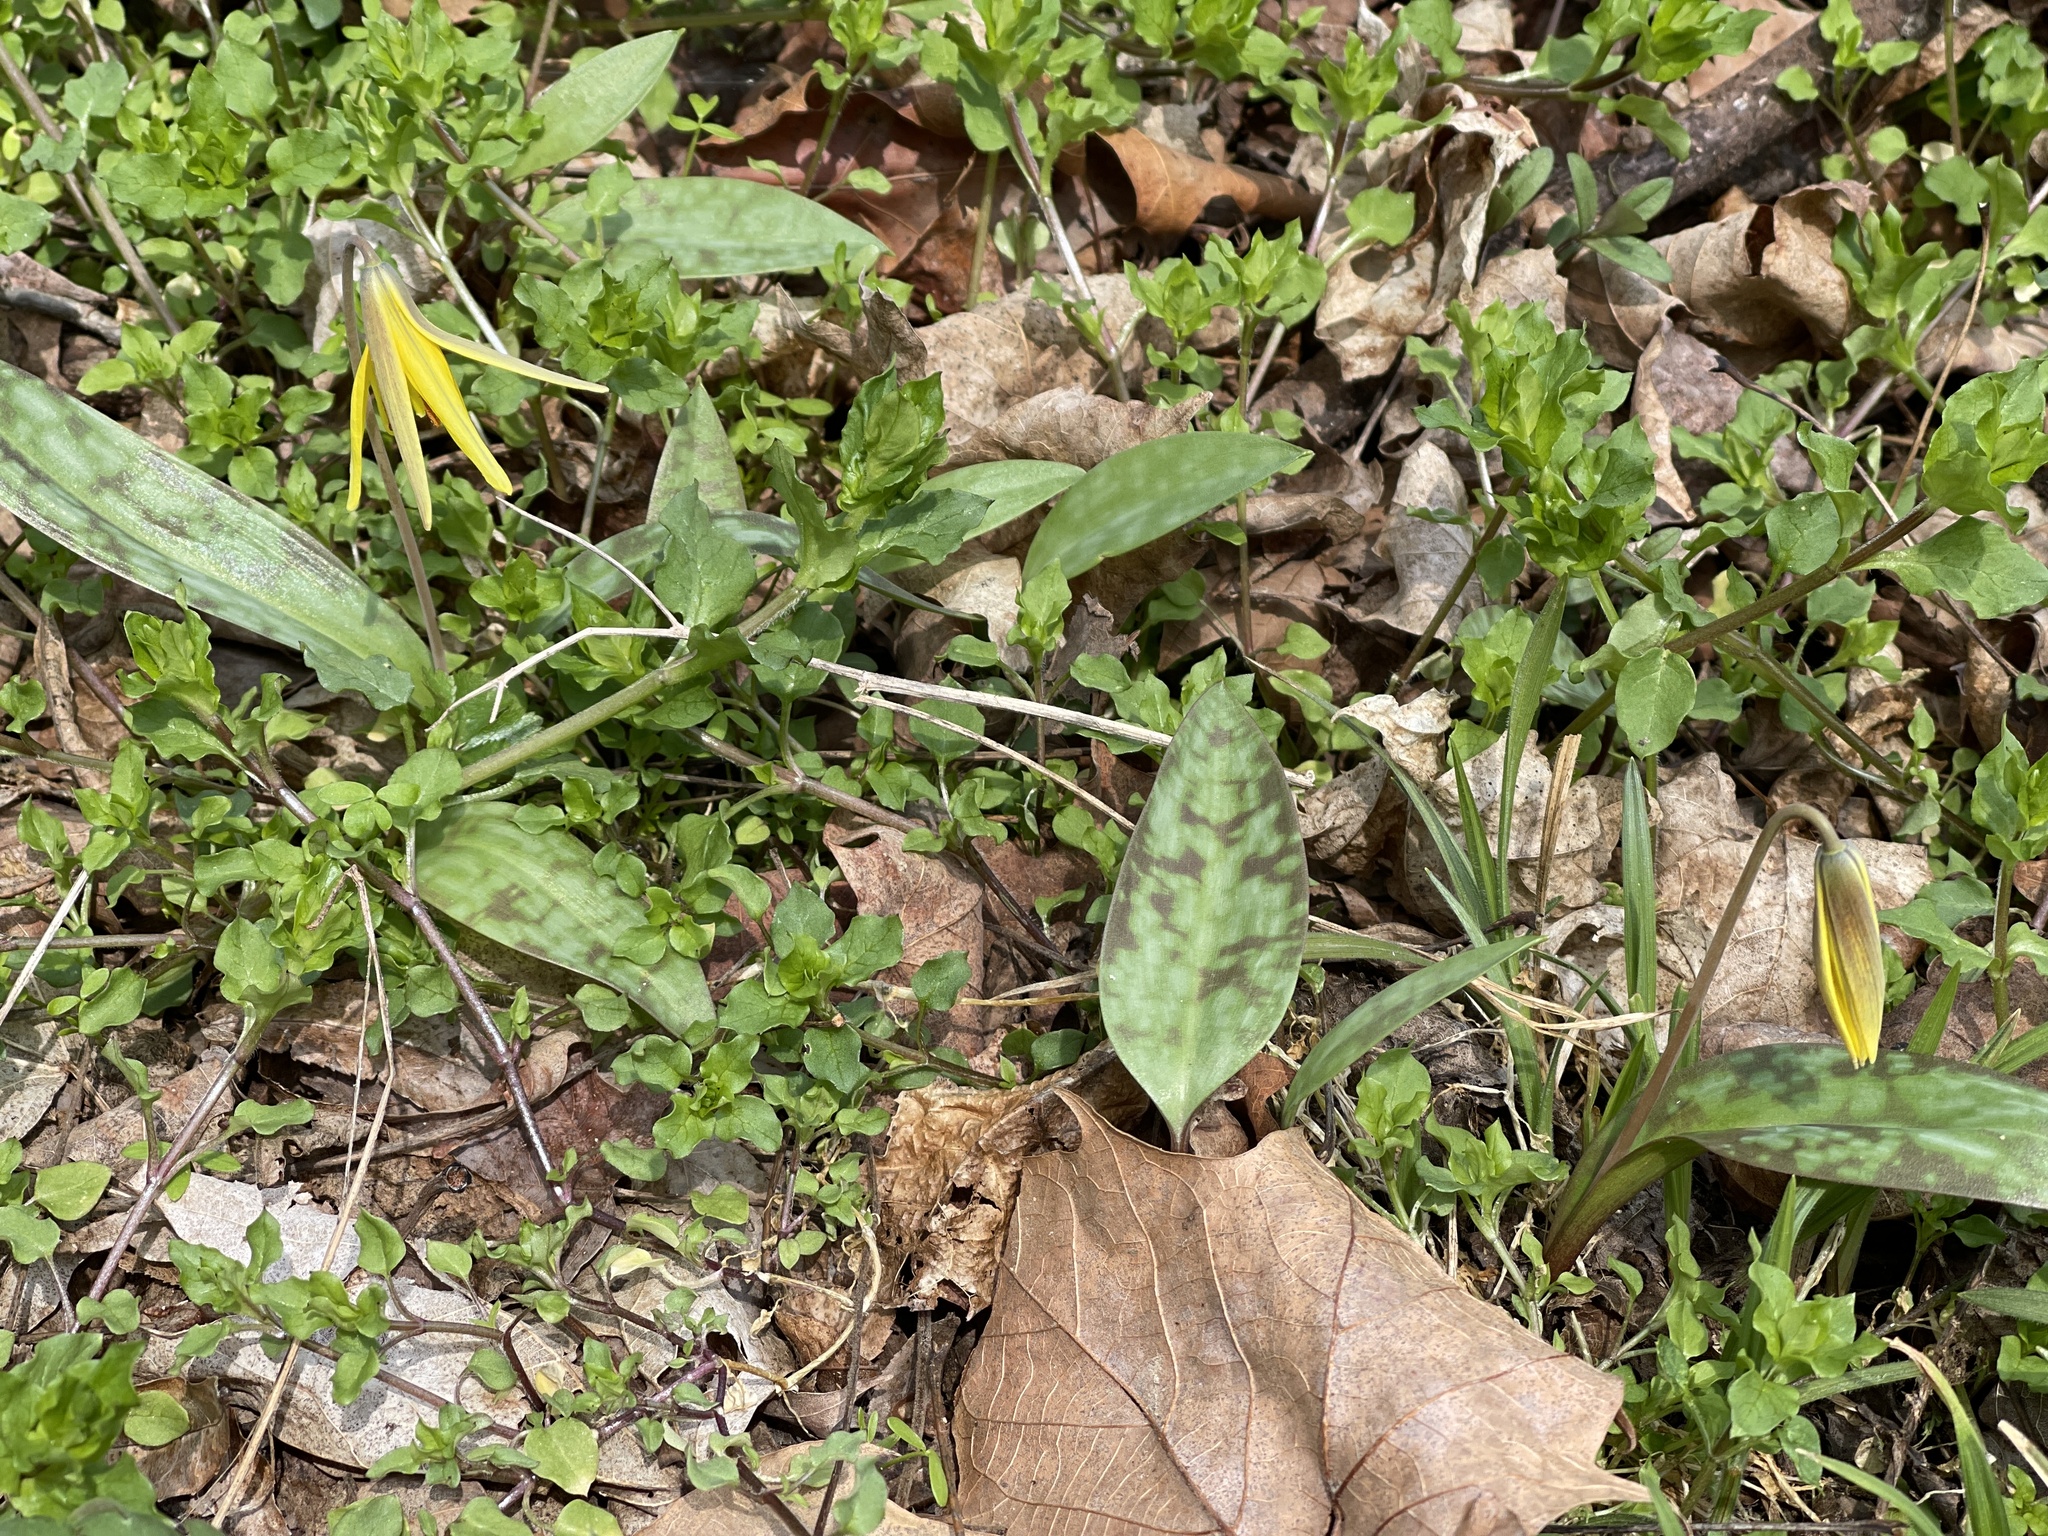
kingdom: Plantae
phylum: Tracheophyta
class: Liliopsida
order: Liliales
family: Liliaceae
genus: Erythronium
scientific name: Erythronium americanum
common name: Yellow adder's-tongue
